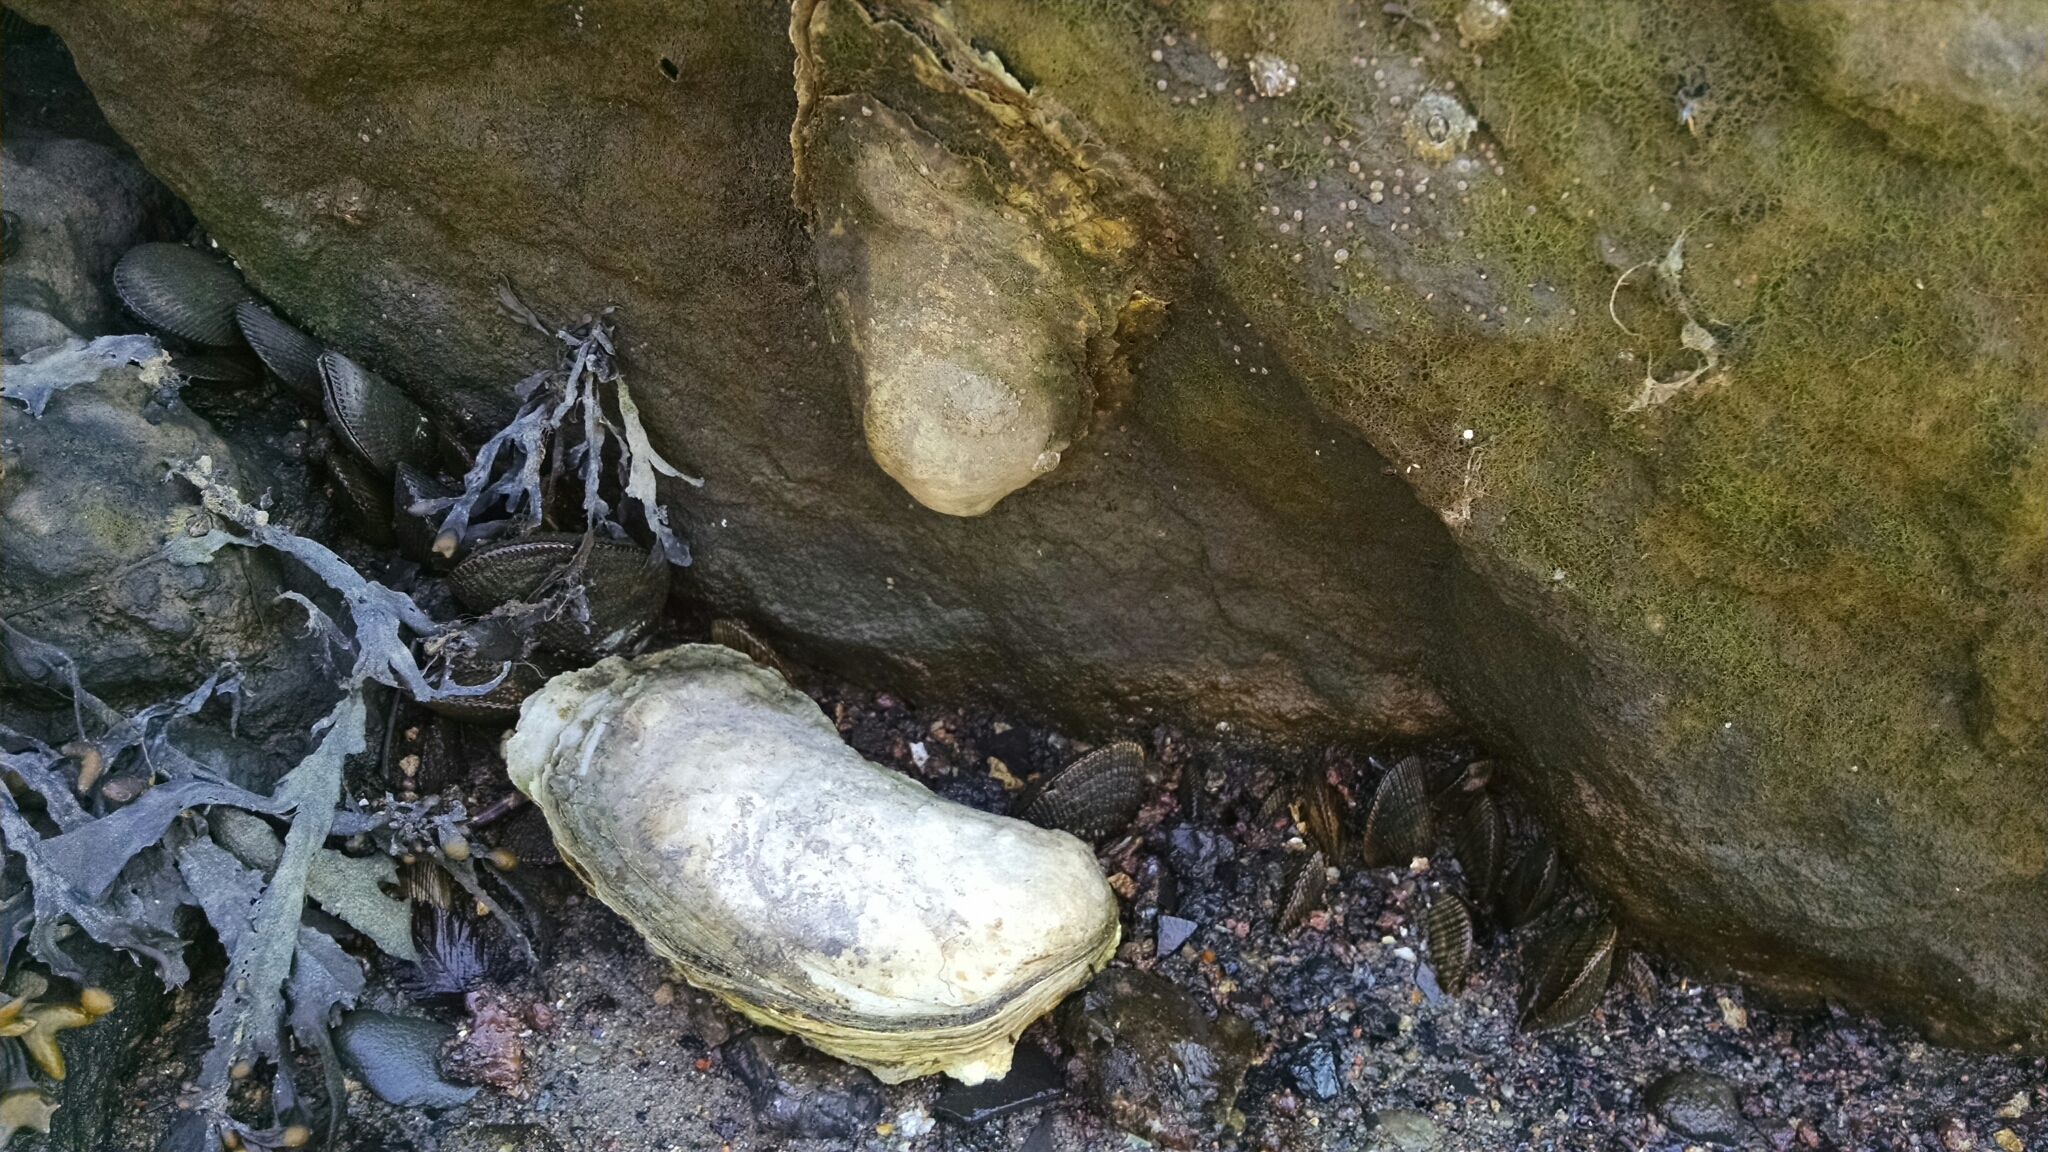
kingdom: Animalia
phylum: Mollusca
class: Bivalvia
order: Ostreida
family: Ostreidae
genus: Crassostrea
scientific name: Crassostrea virginica
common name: American oyster
